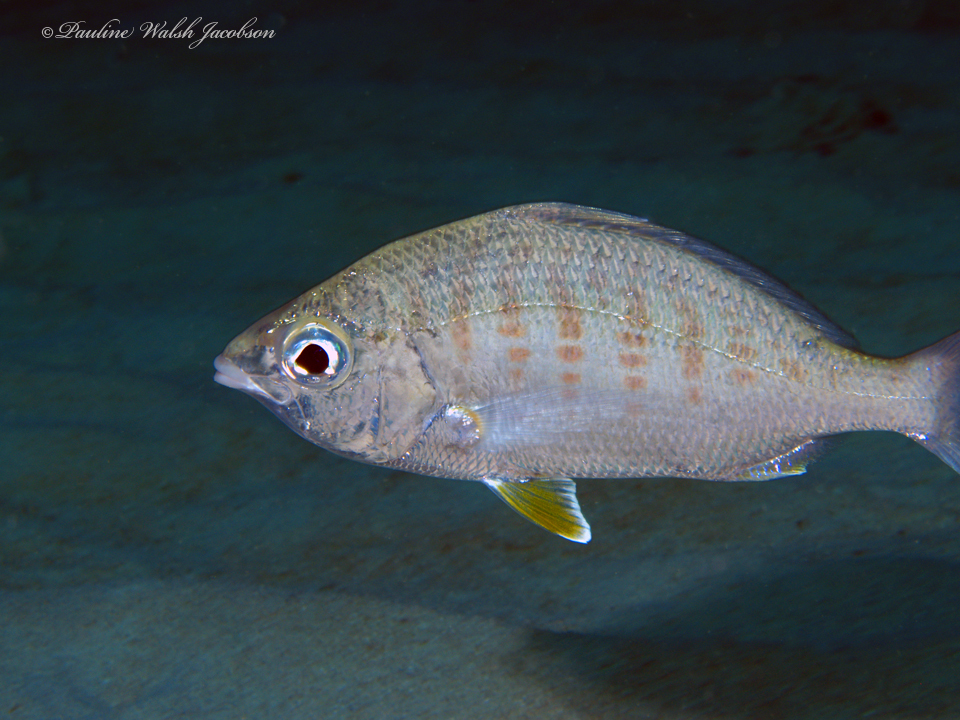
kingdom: Animalia
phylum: Chordata
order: Perciformes
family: Gerreidae
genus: Gerres
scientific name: Gerres cinereus
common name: Hedow
